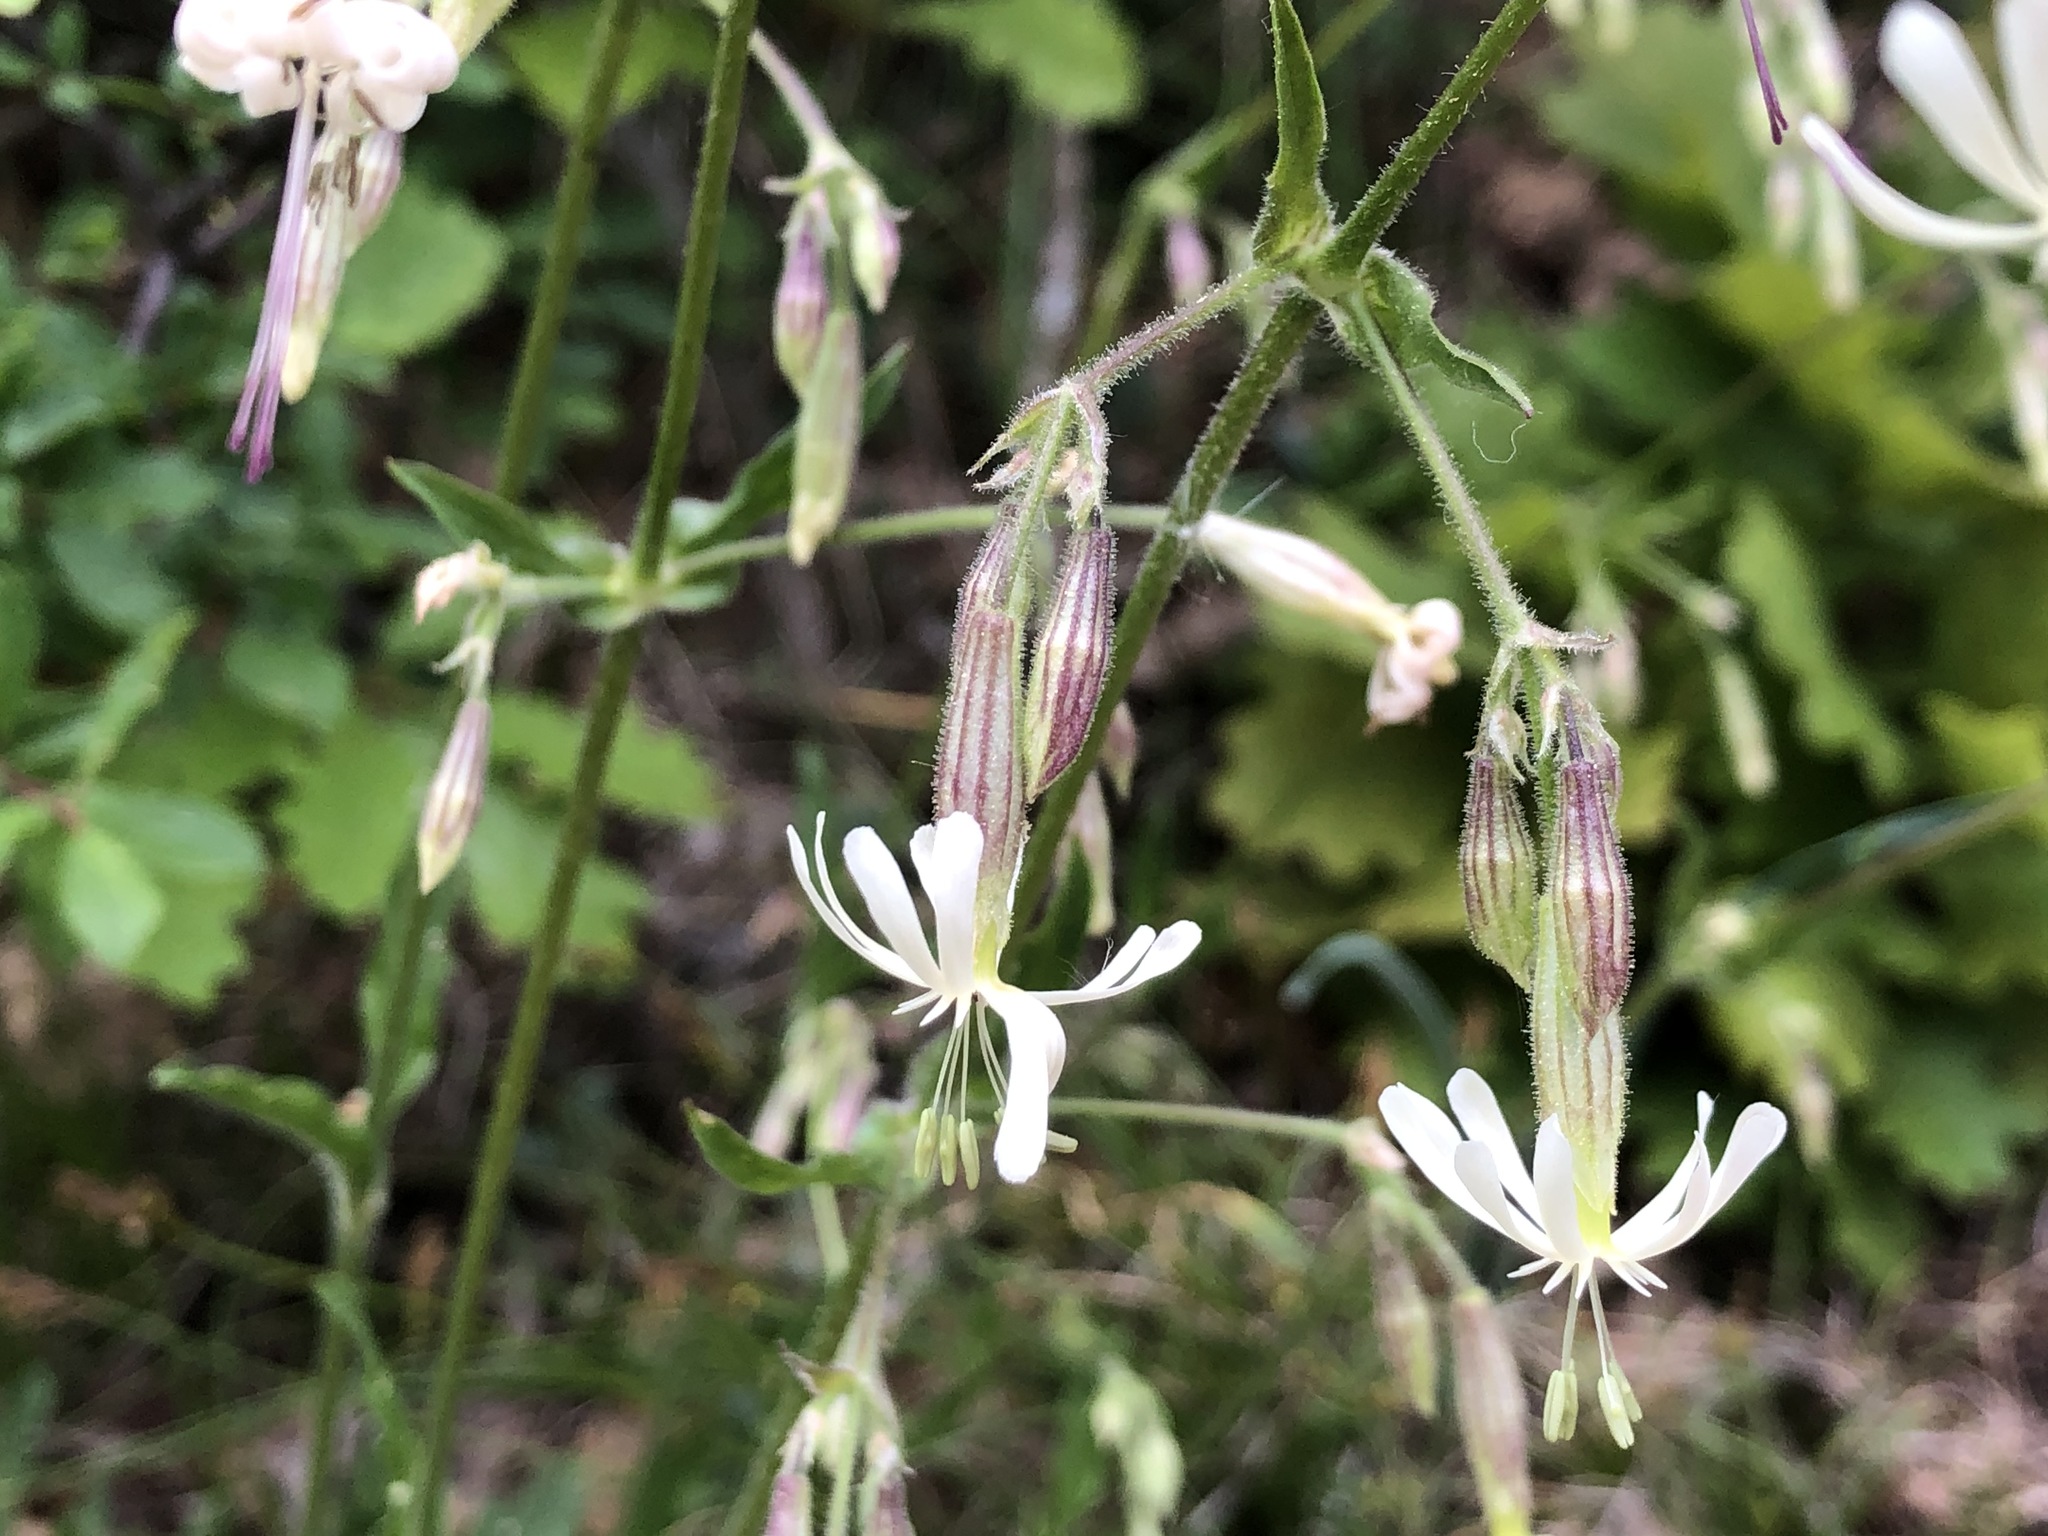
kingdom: Plantae
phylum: Tracheophyta
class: Magnoliopsida
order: Caryophyllales
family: Caryophyllaceae
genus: Silene
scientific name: Silene nutans
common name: Nottingham catchfly
